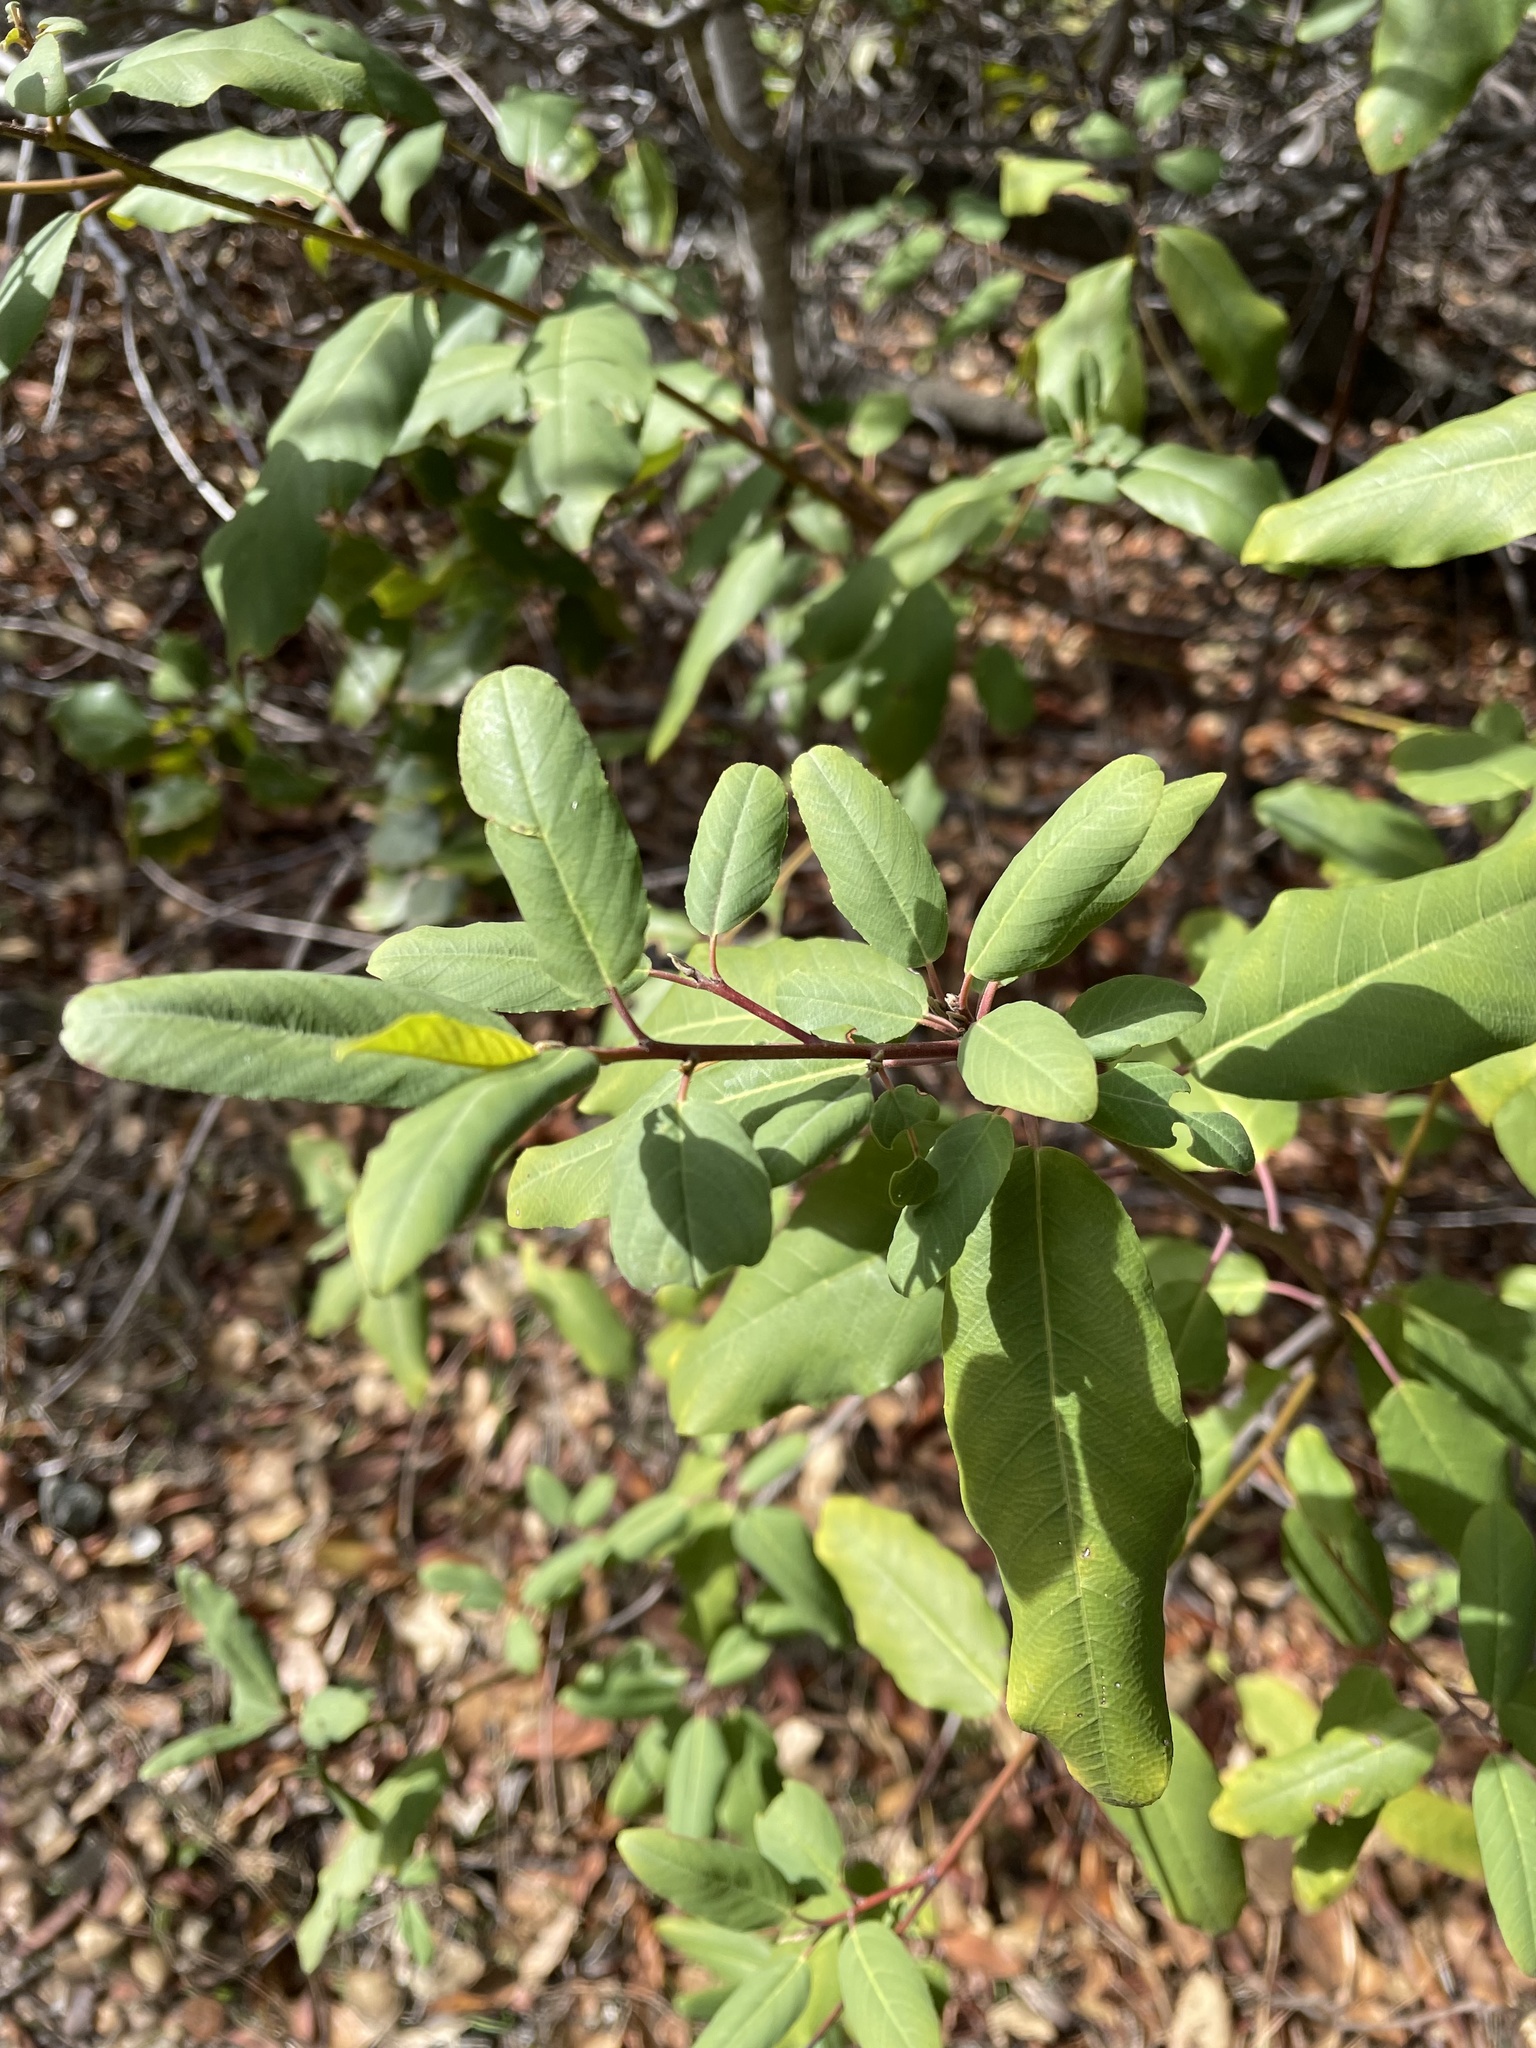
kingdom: Plantae
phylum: Tracheophyta
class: Magnoliopsida
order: Rosales
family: Rhamnaceae
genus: Frangula
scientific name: Frangula californica
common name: California buckthorn
